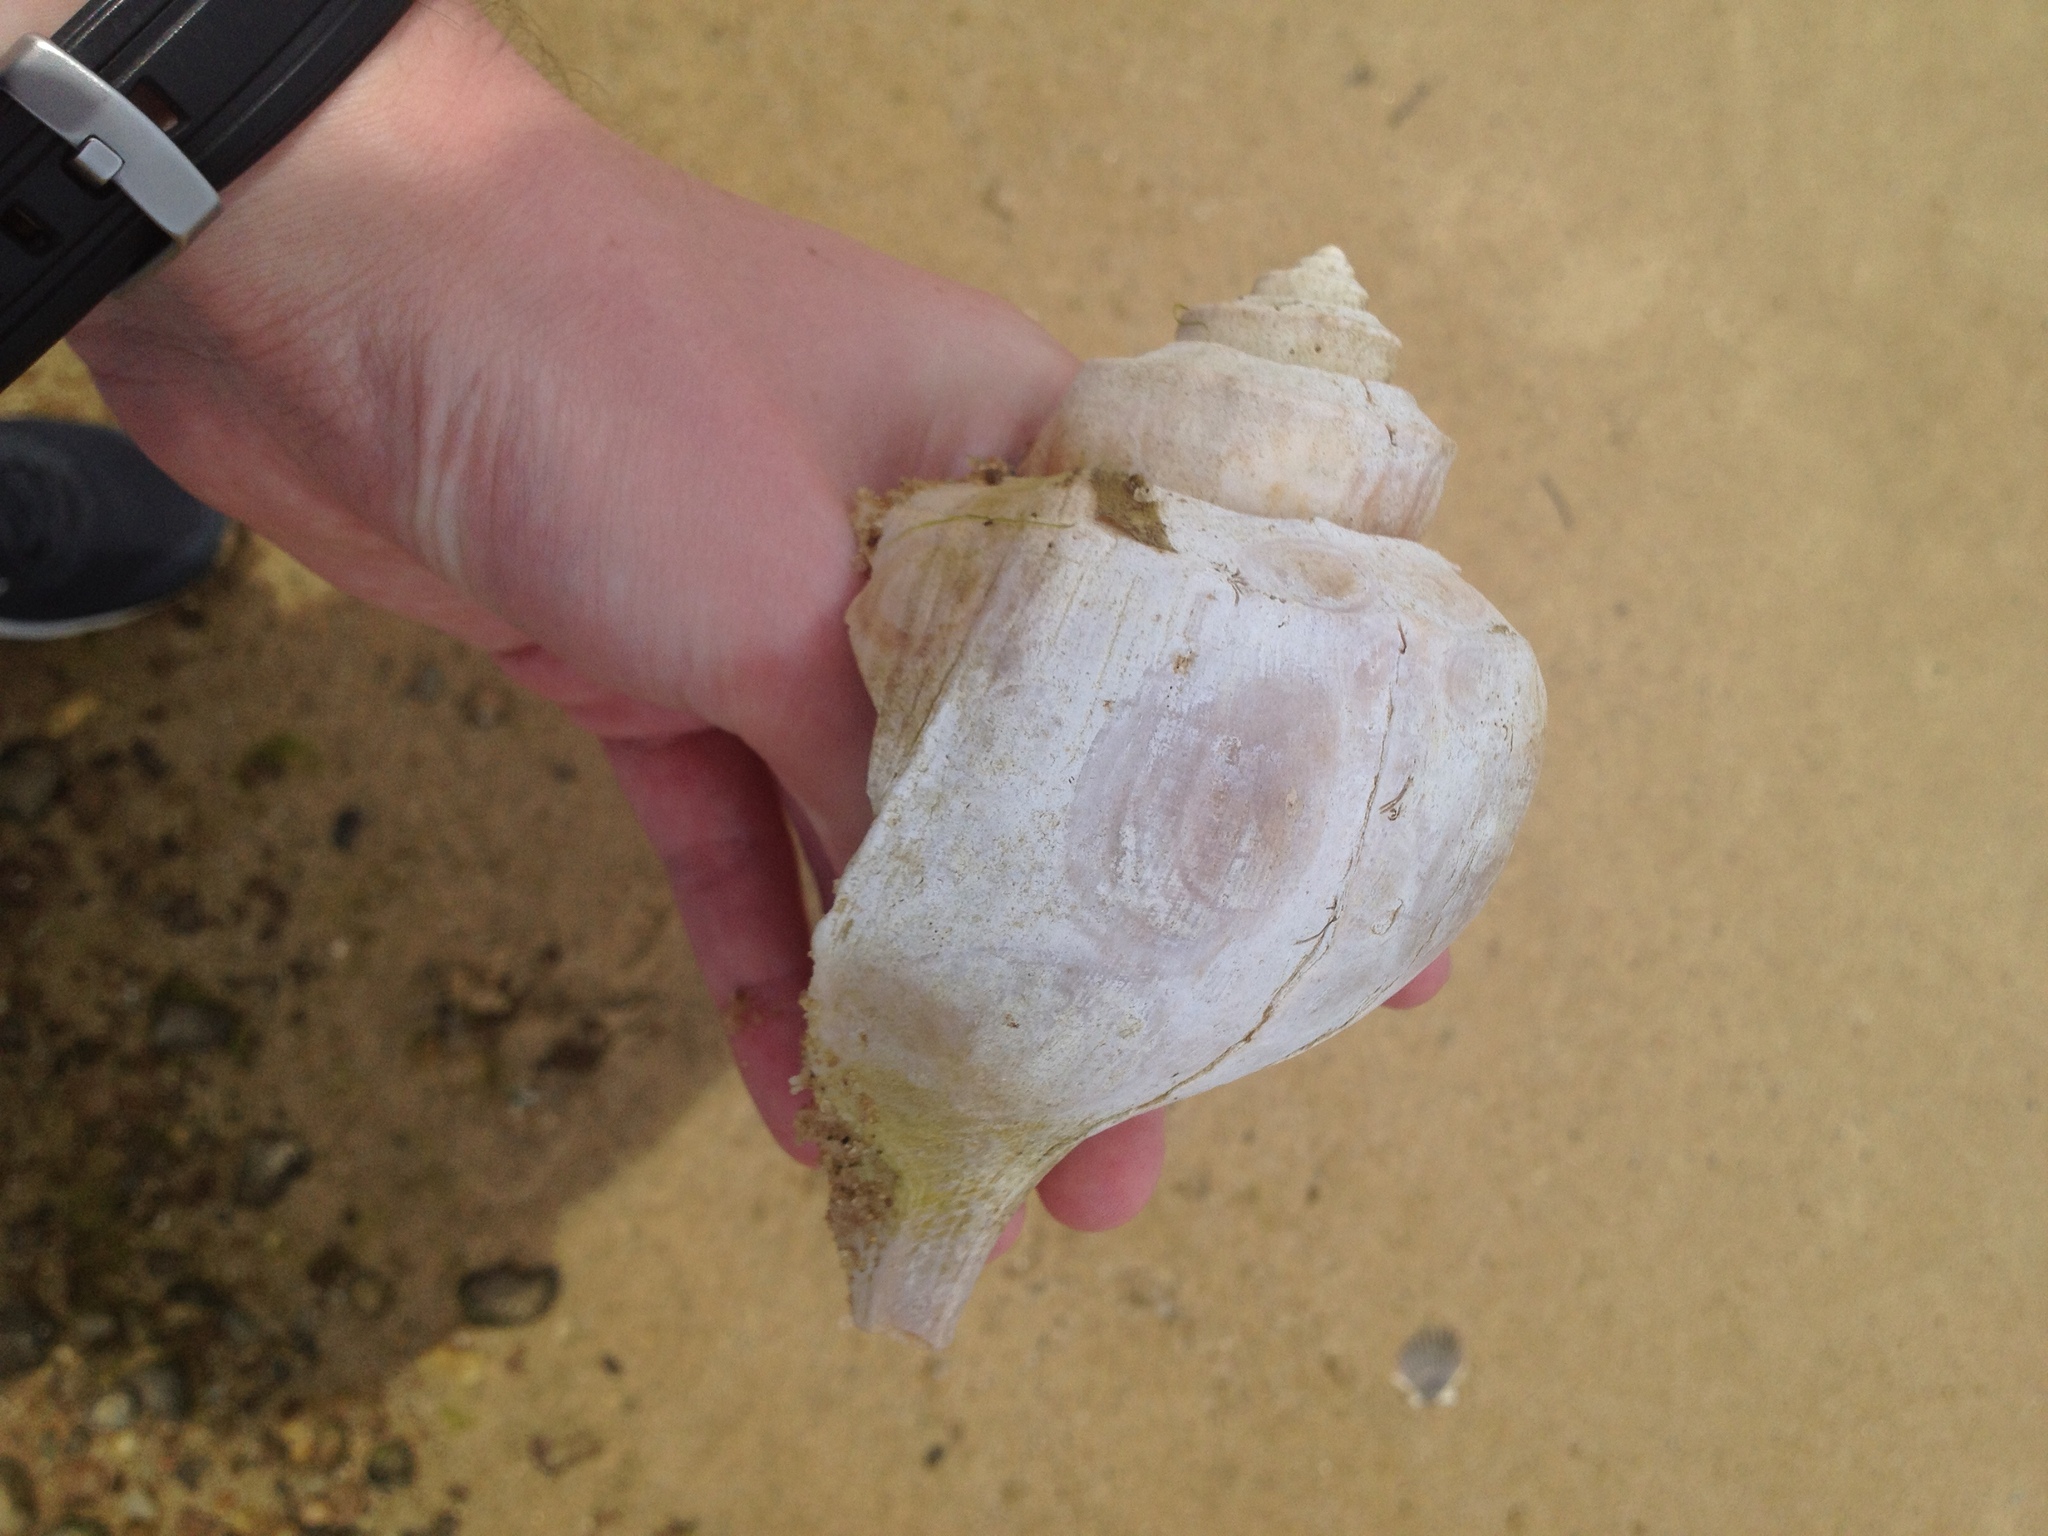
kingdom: Animalia
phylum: Mollusca
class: Gastropoda
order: Neogastropoda
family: Busyconidae
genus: Busycotypus
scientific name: Busycotypus canaliculatus
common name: Channeled whelk
